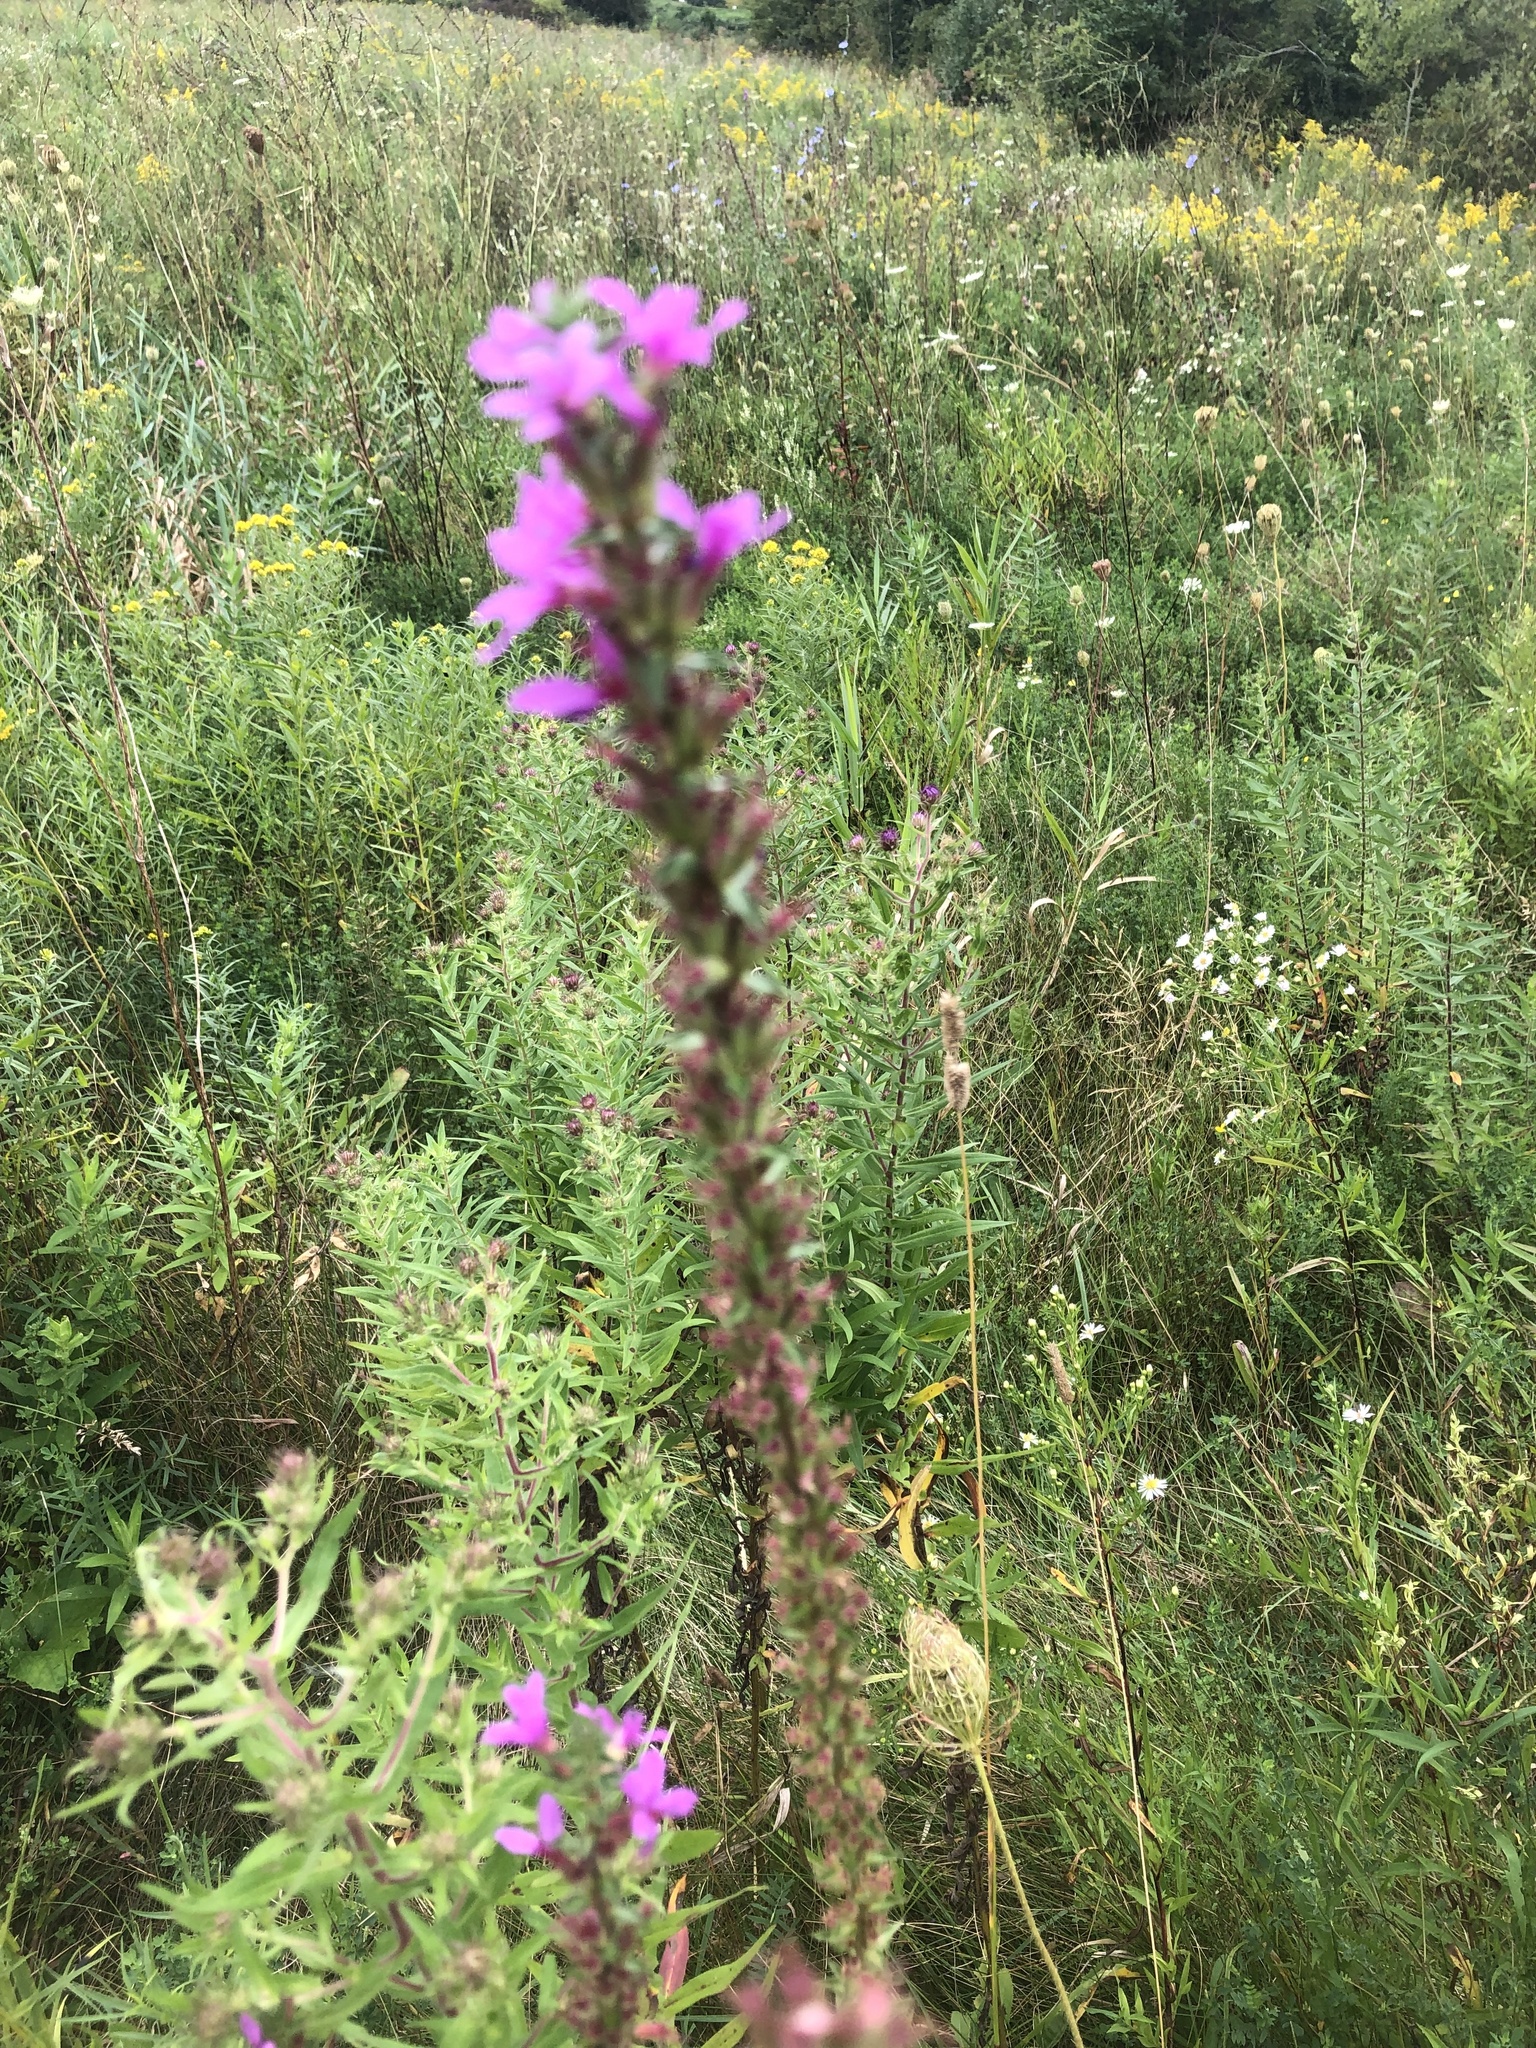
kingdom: Plantae
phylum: Tracheophyta
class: Magnoliopsida
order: Myrtales
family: Lythraceae
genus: Lythrum
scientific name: Lythrum salicaria
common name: Purple loosestrife
